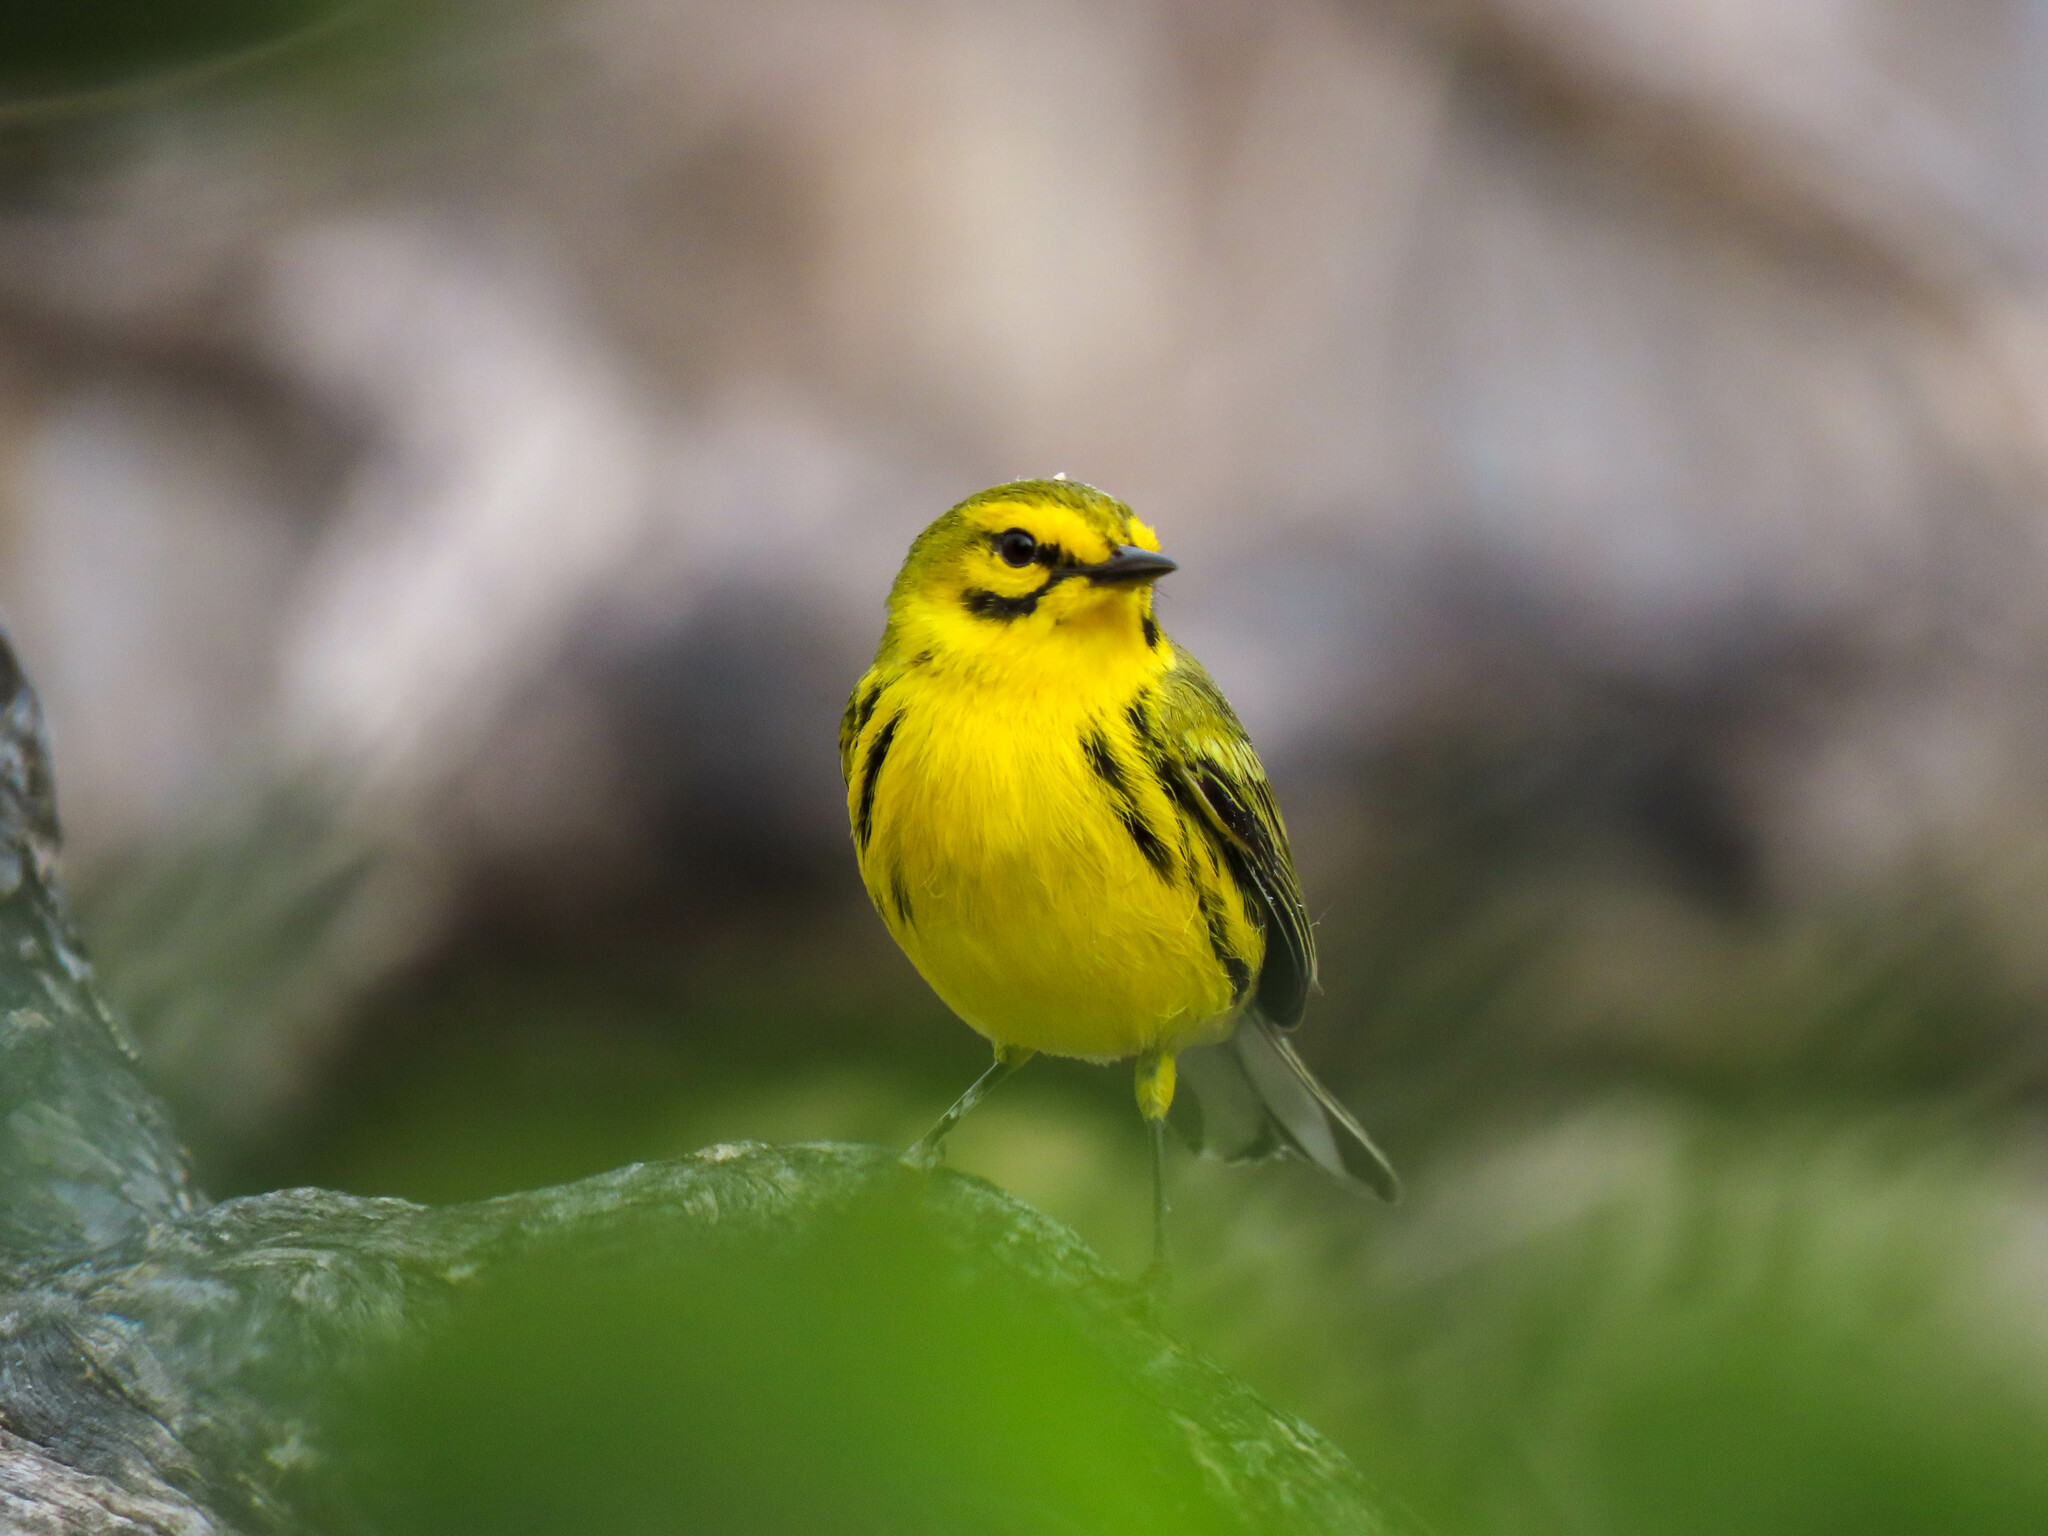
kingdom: Animalia
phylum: Chordata
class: Aves
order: Passeriformes
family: Parulidae
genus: Setophaga
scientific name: Setophaga discolor
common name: Prairie warbler
